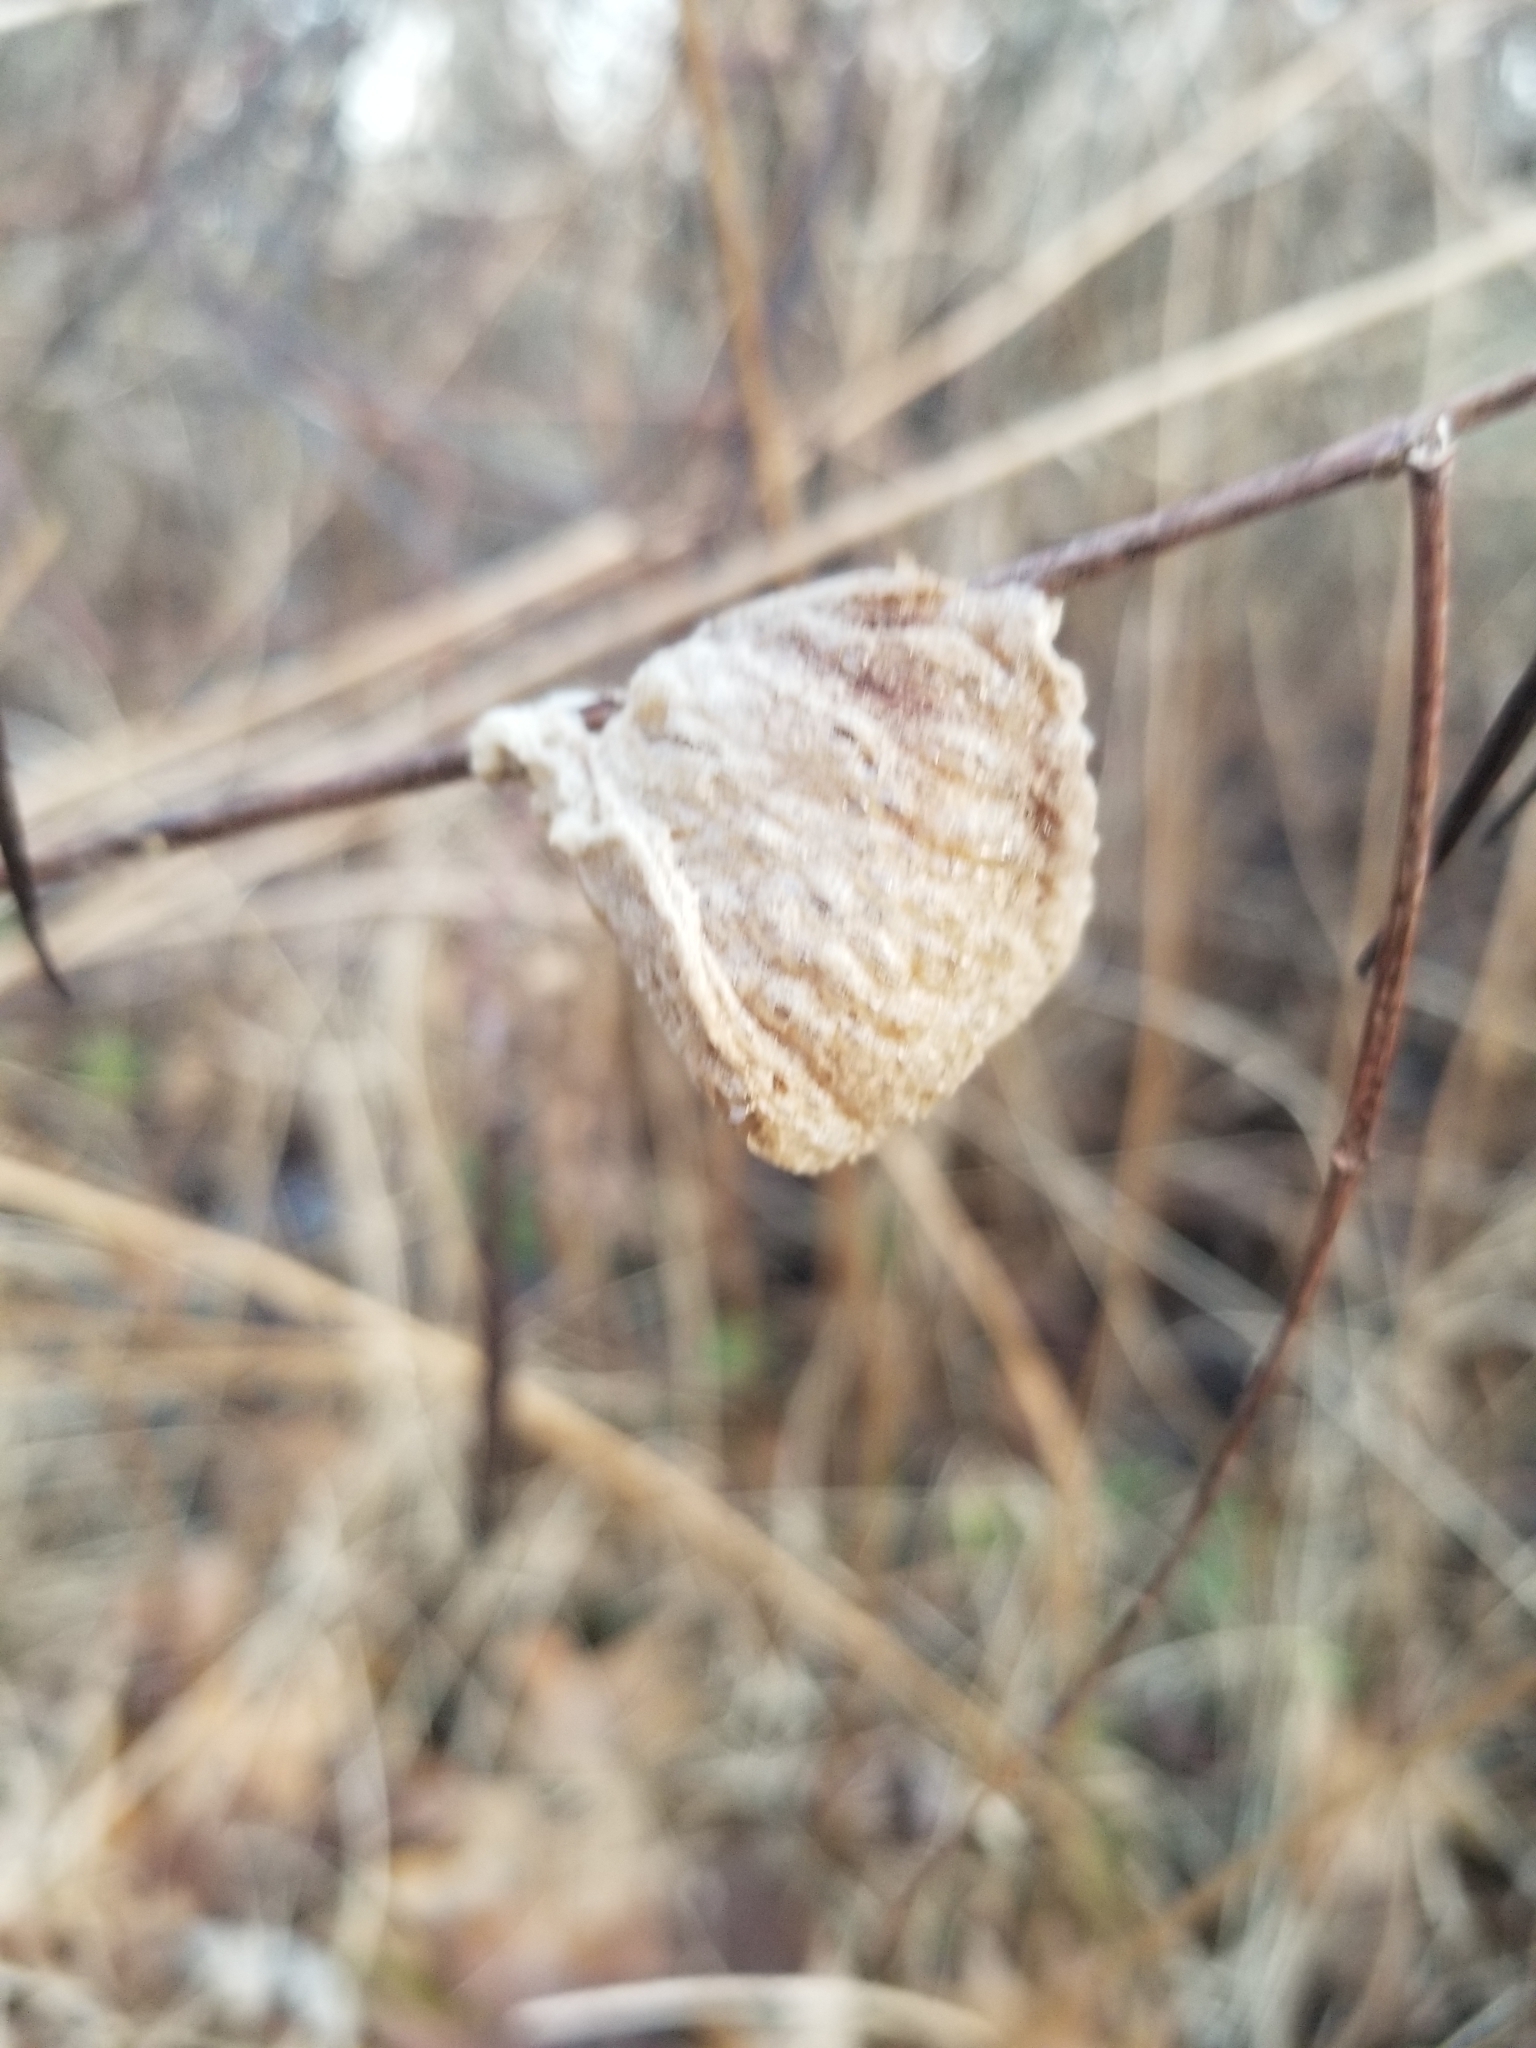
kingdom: Animalia
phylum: Arthropoda
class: Insecta
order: Mantodea
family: Mantidae
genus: Tenodera
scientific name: Tenodera sinensis
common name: Chinese mantis
